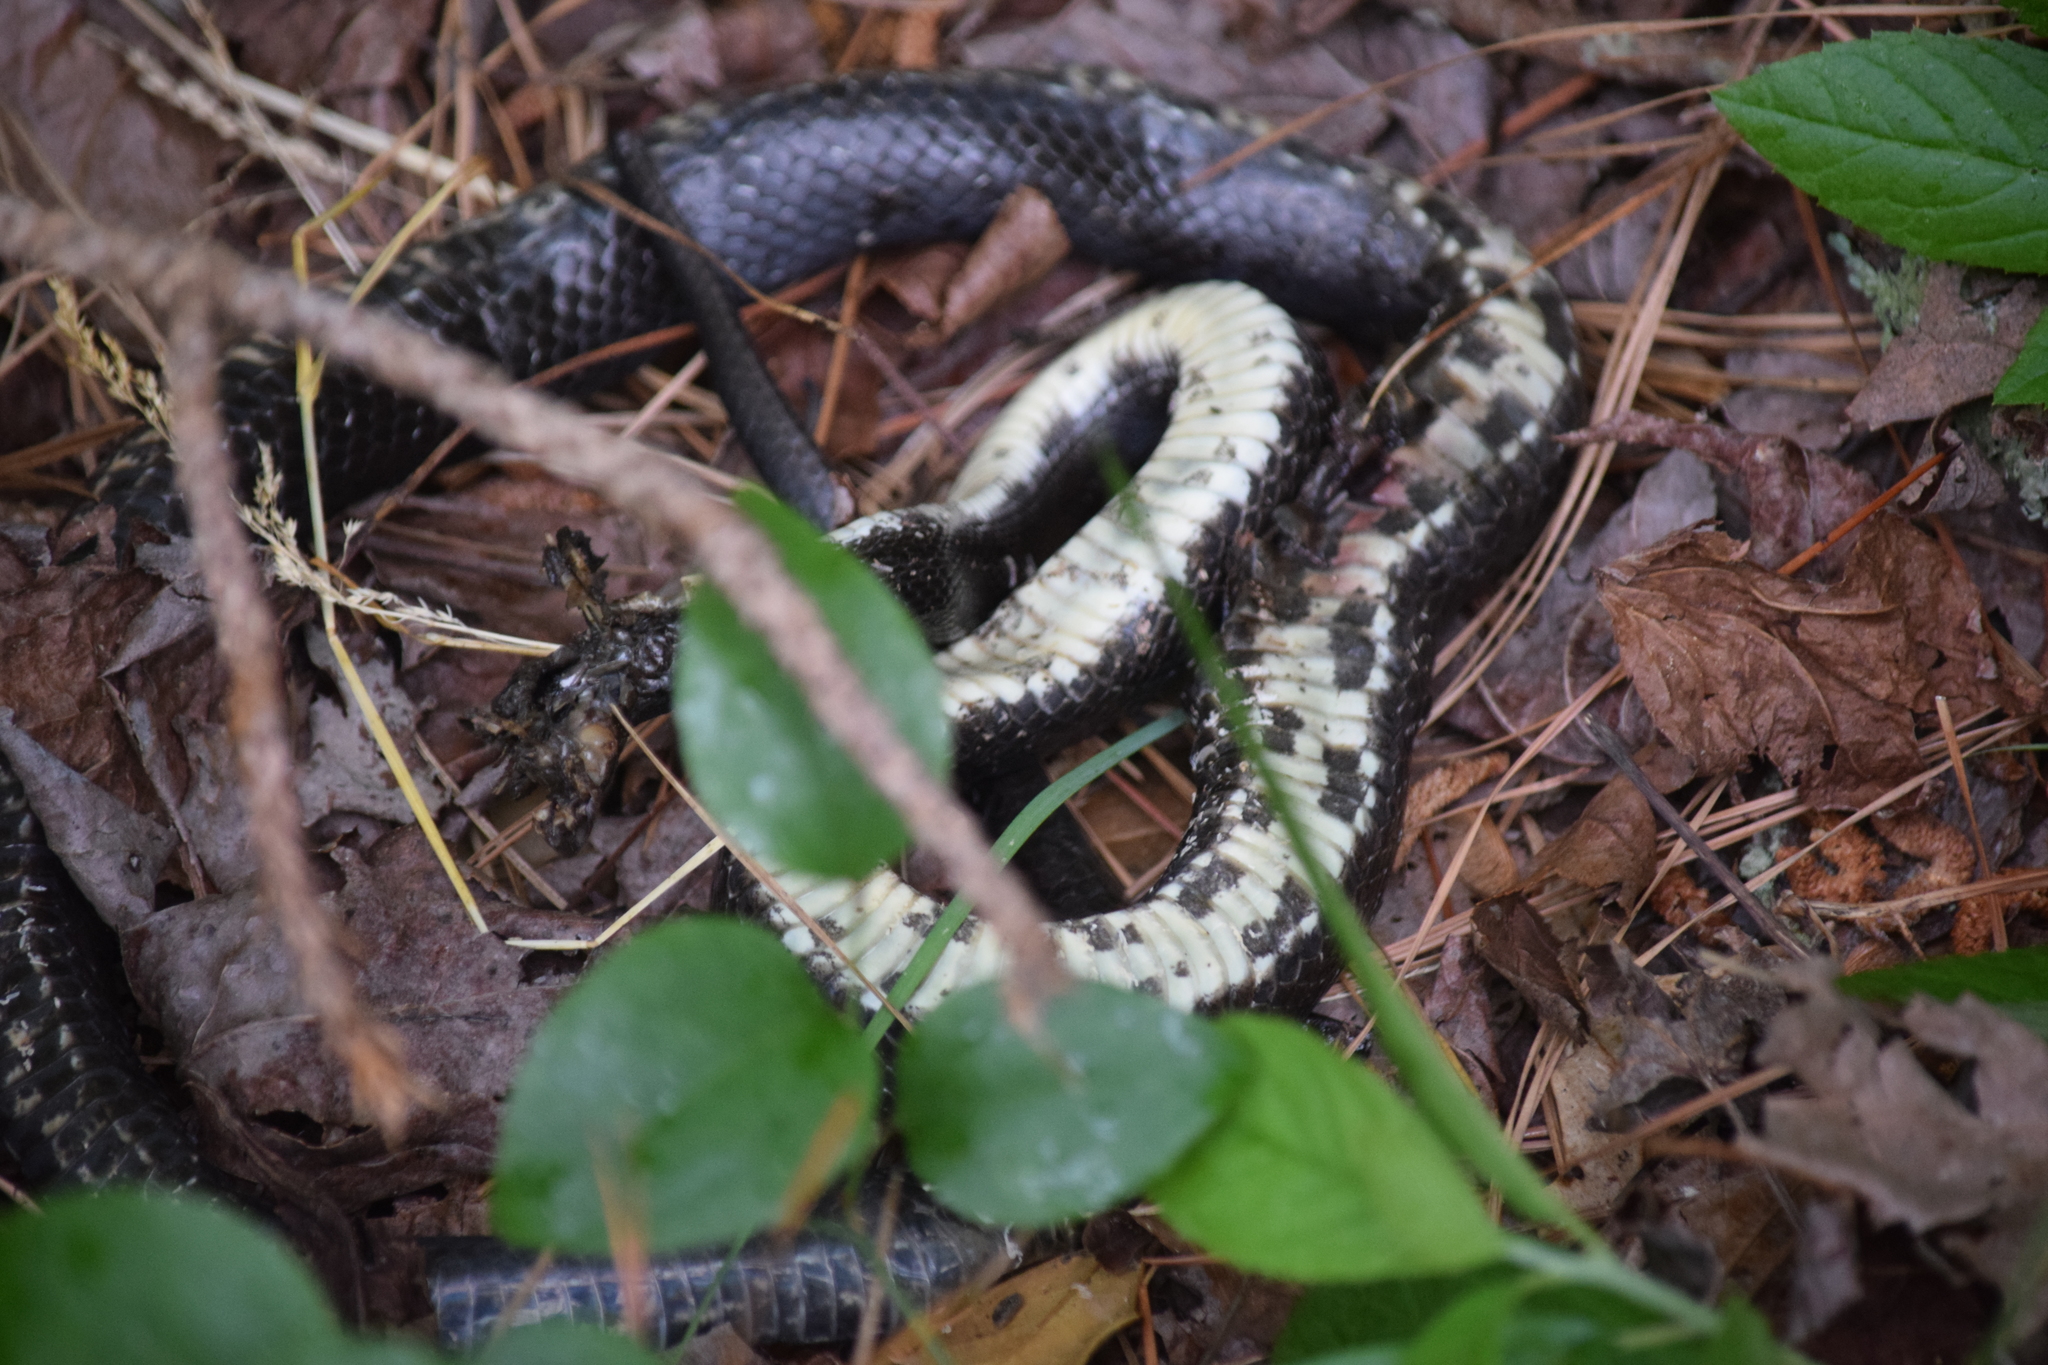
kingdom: Animalia
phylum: Chordata
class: Squamata
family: Colubridae
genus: Pantherophis
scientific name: Pantherophis alleghaniensis
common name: Eastern rat snake
